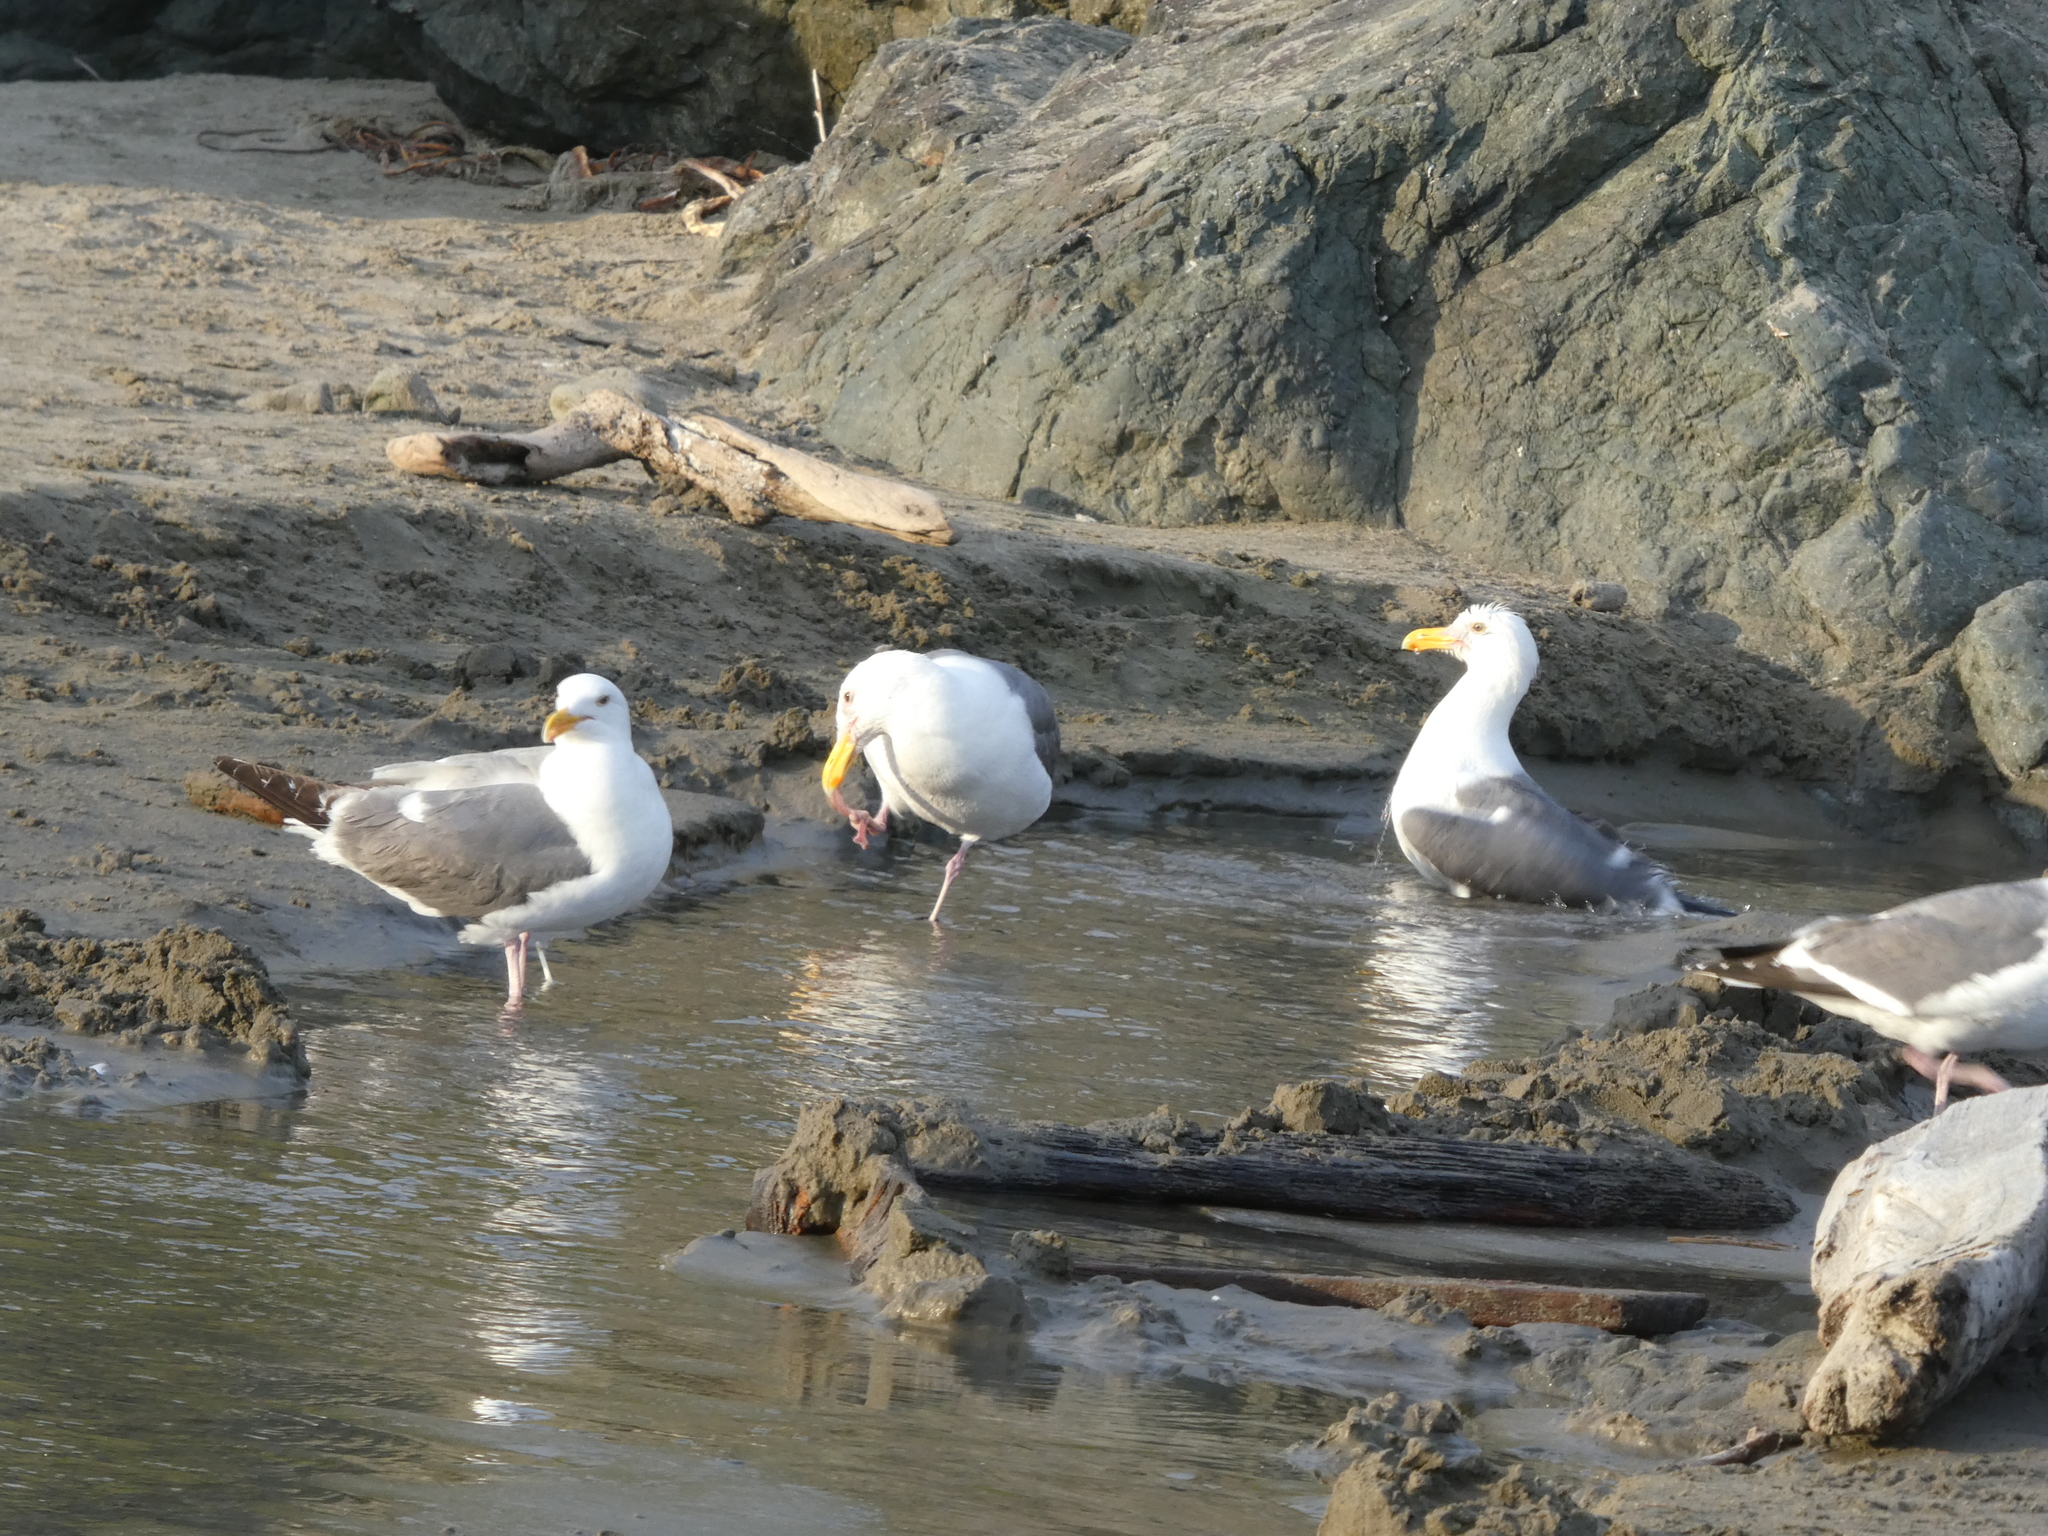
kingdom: Animalia
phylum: Chordata
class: Aves
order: Charadriiformes
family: Laridae
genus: Larus
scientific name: Larus occidentalis
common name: Western gull
